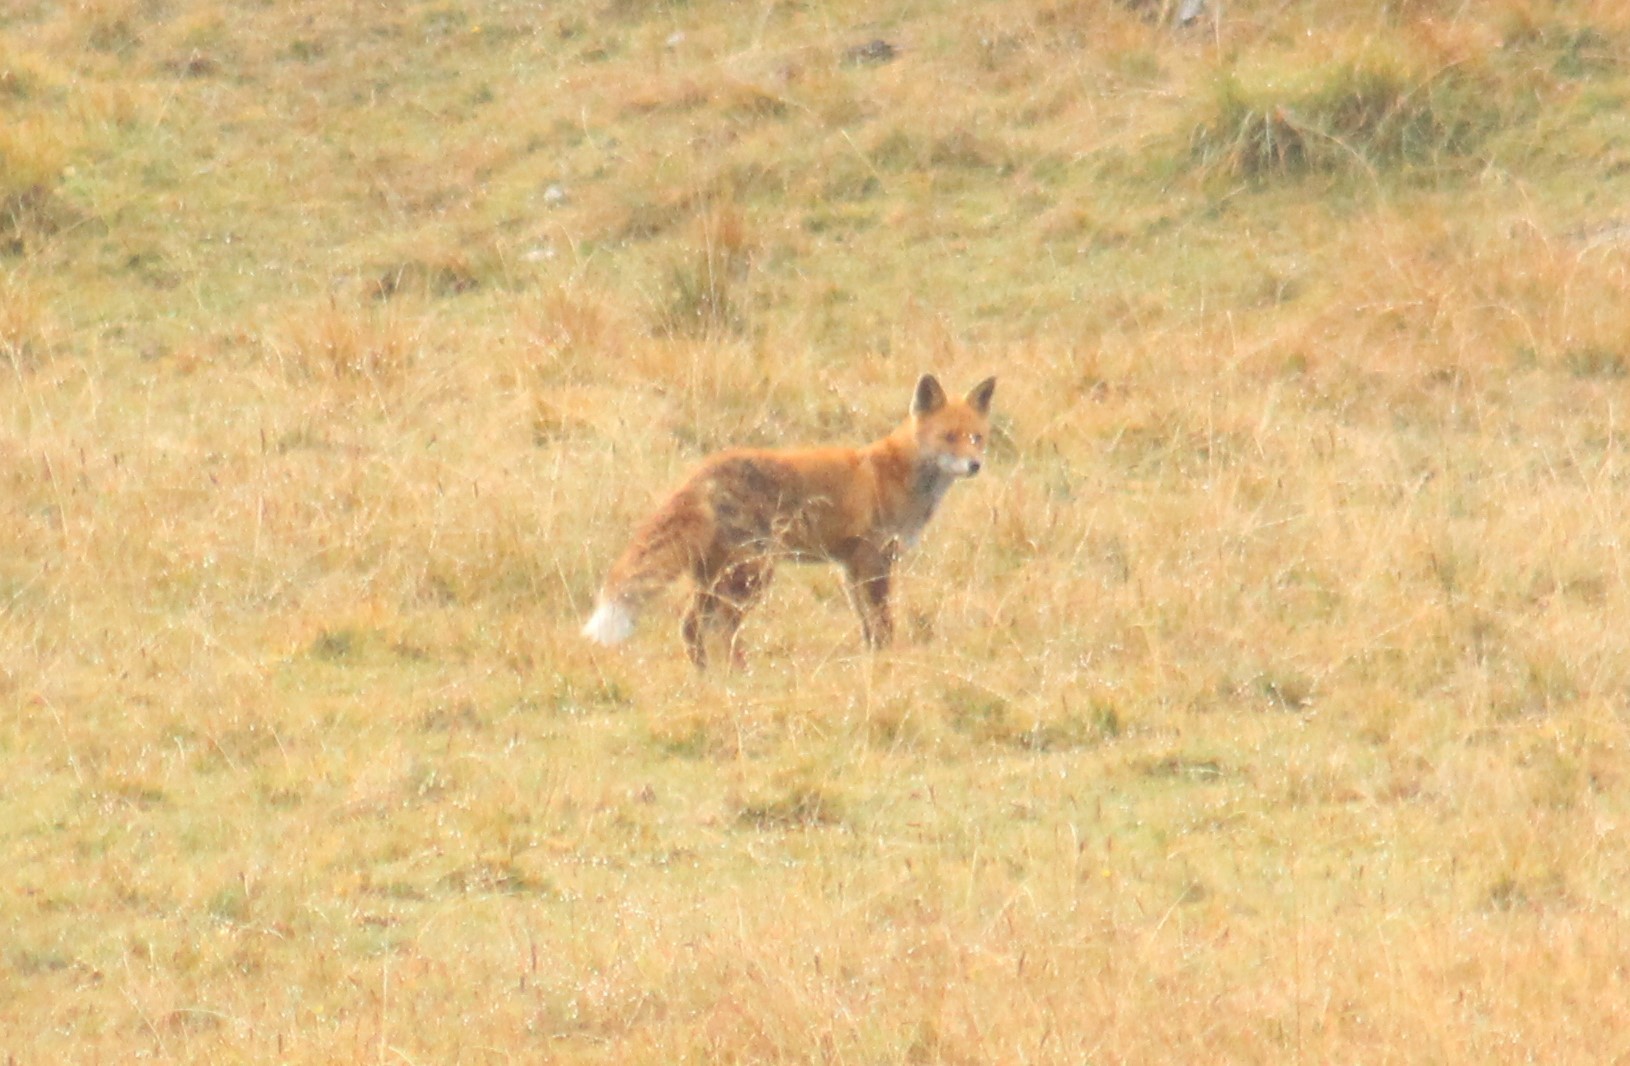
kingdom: Animalia
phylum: Chordata
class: Mammalia
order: Carnivora
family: Canidae
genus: Vulpes
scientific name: Vulpes vulpes
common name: Red fox
